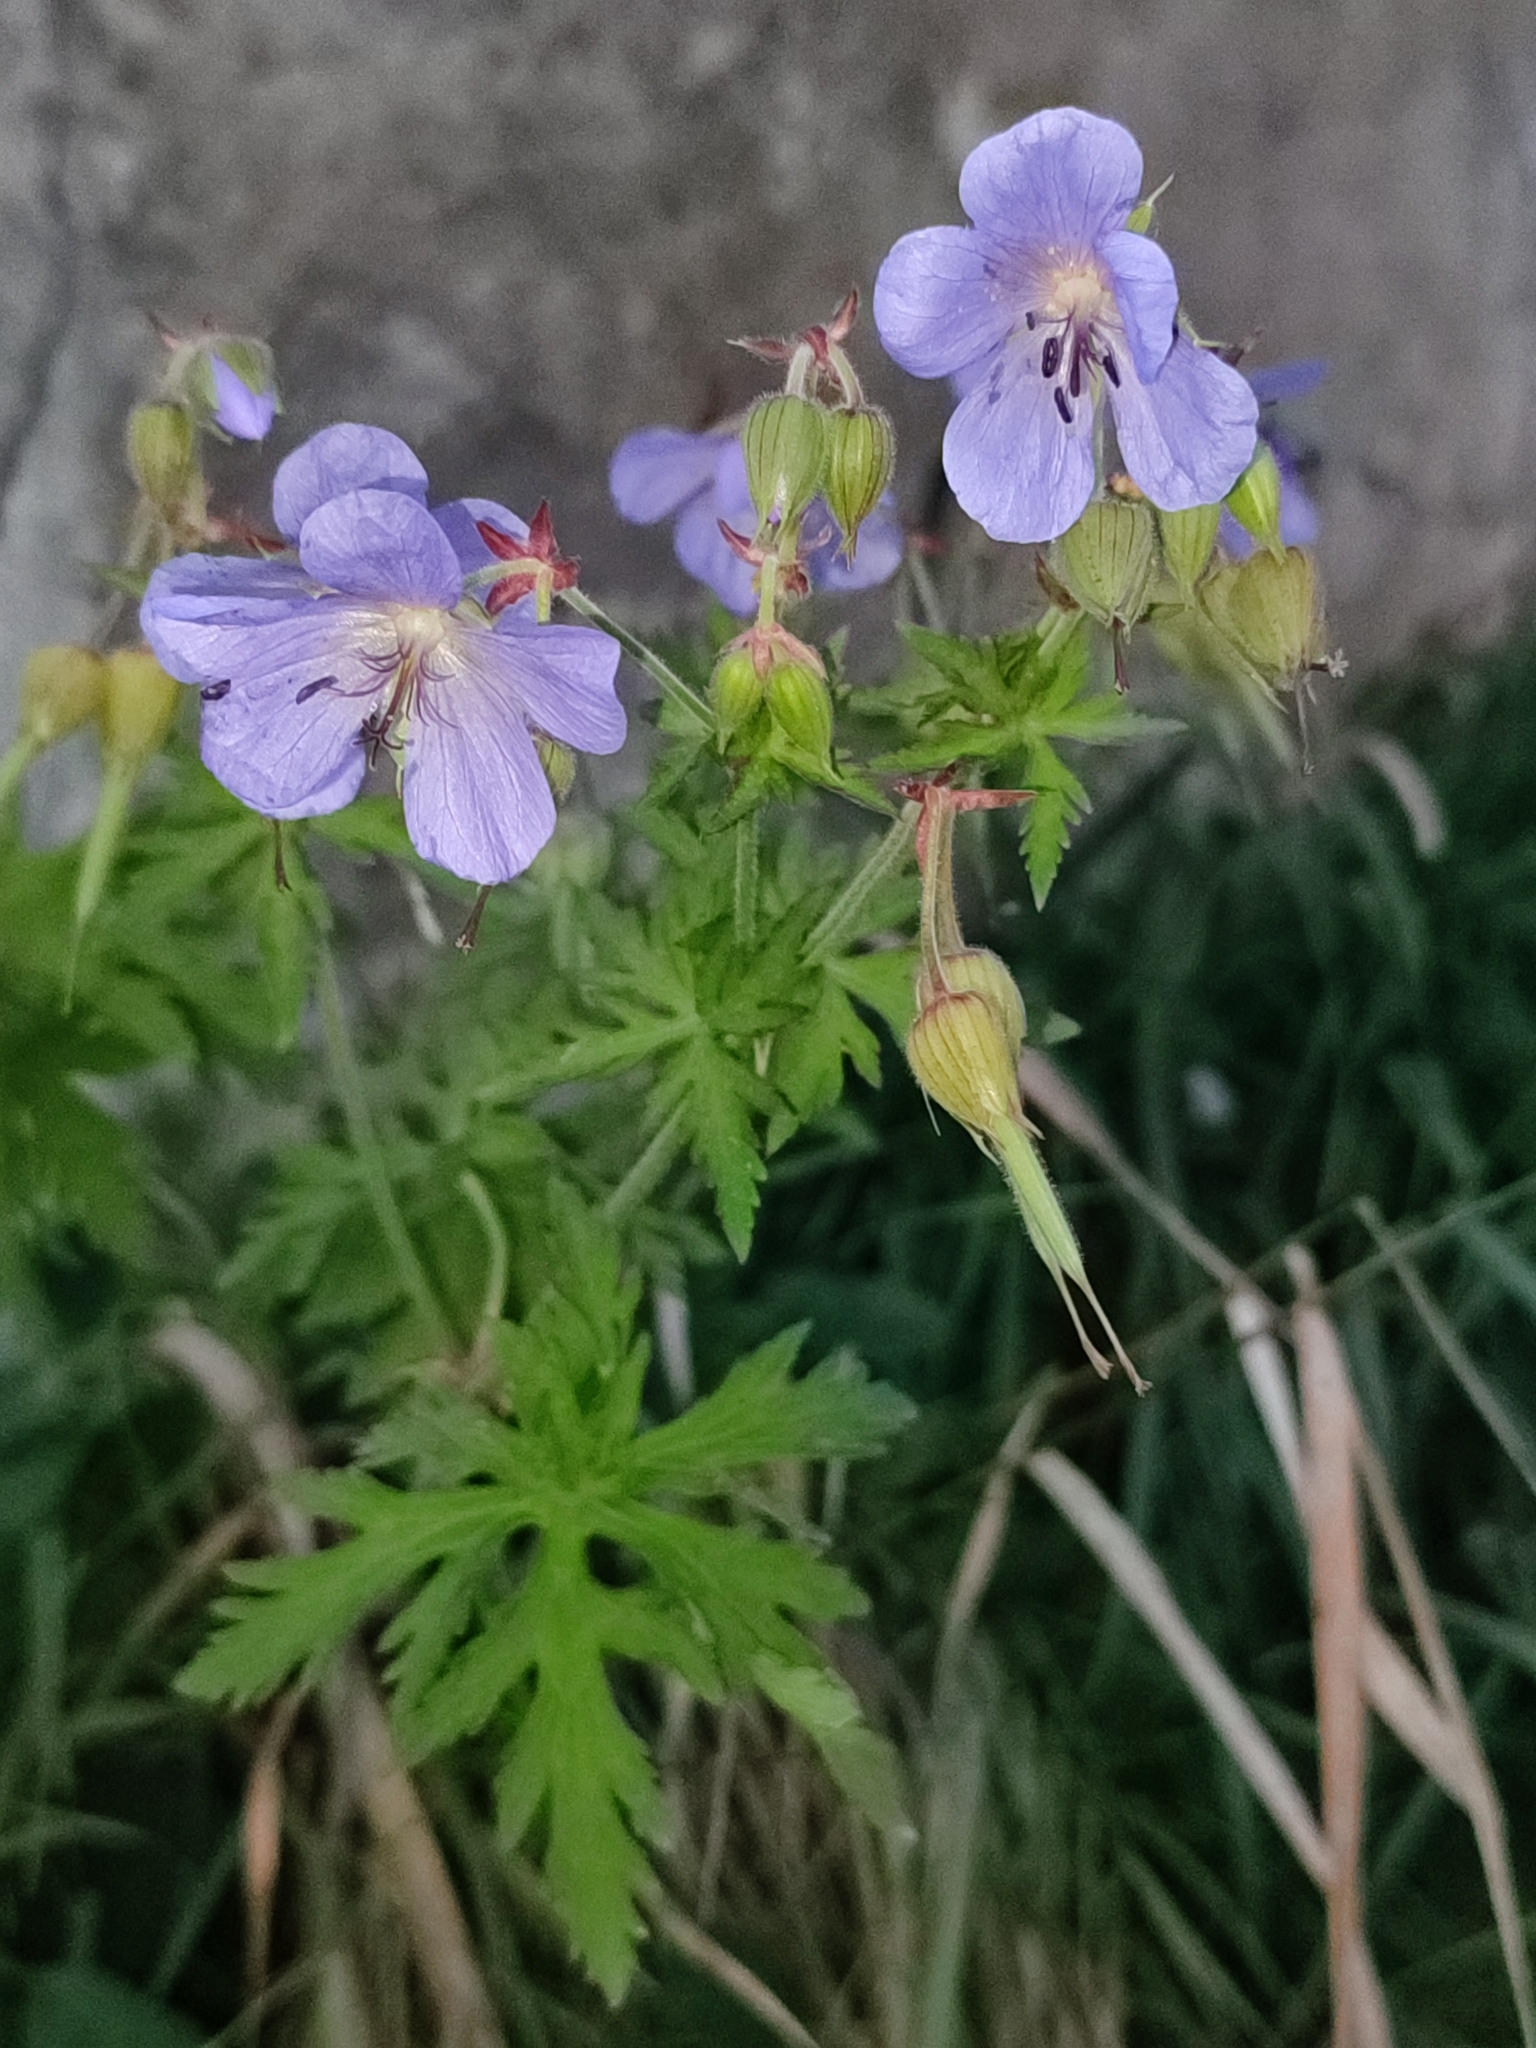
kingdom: Plantae
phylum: Tracheophyta
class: Magnoliopsida
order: Geraniales
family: Geraniaceae
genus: Geranium
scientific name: Geranium pratense
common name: Meadow crane's-bill
